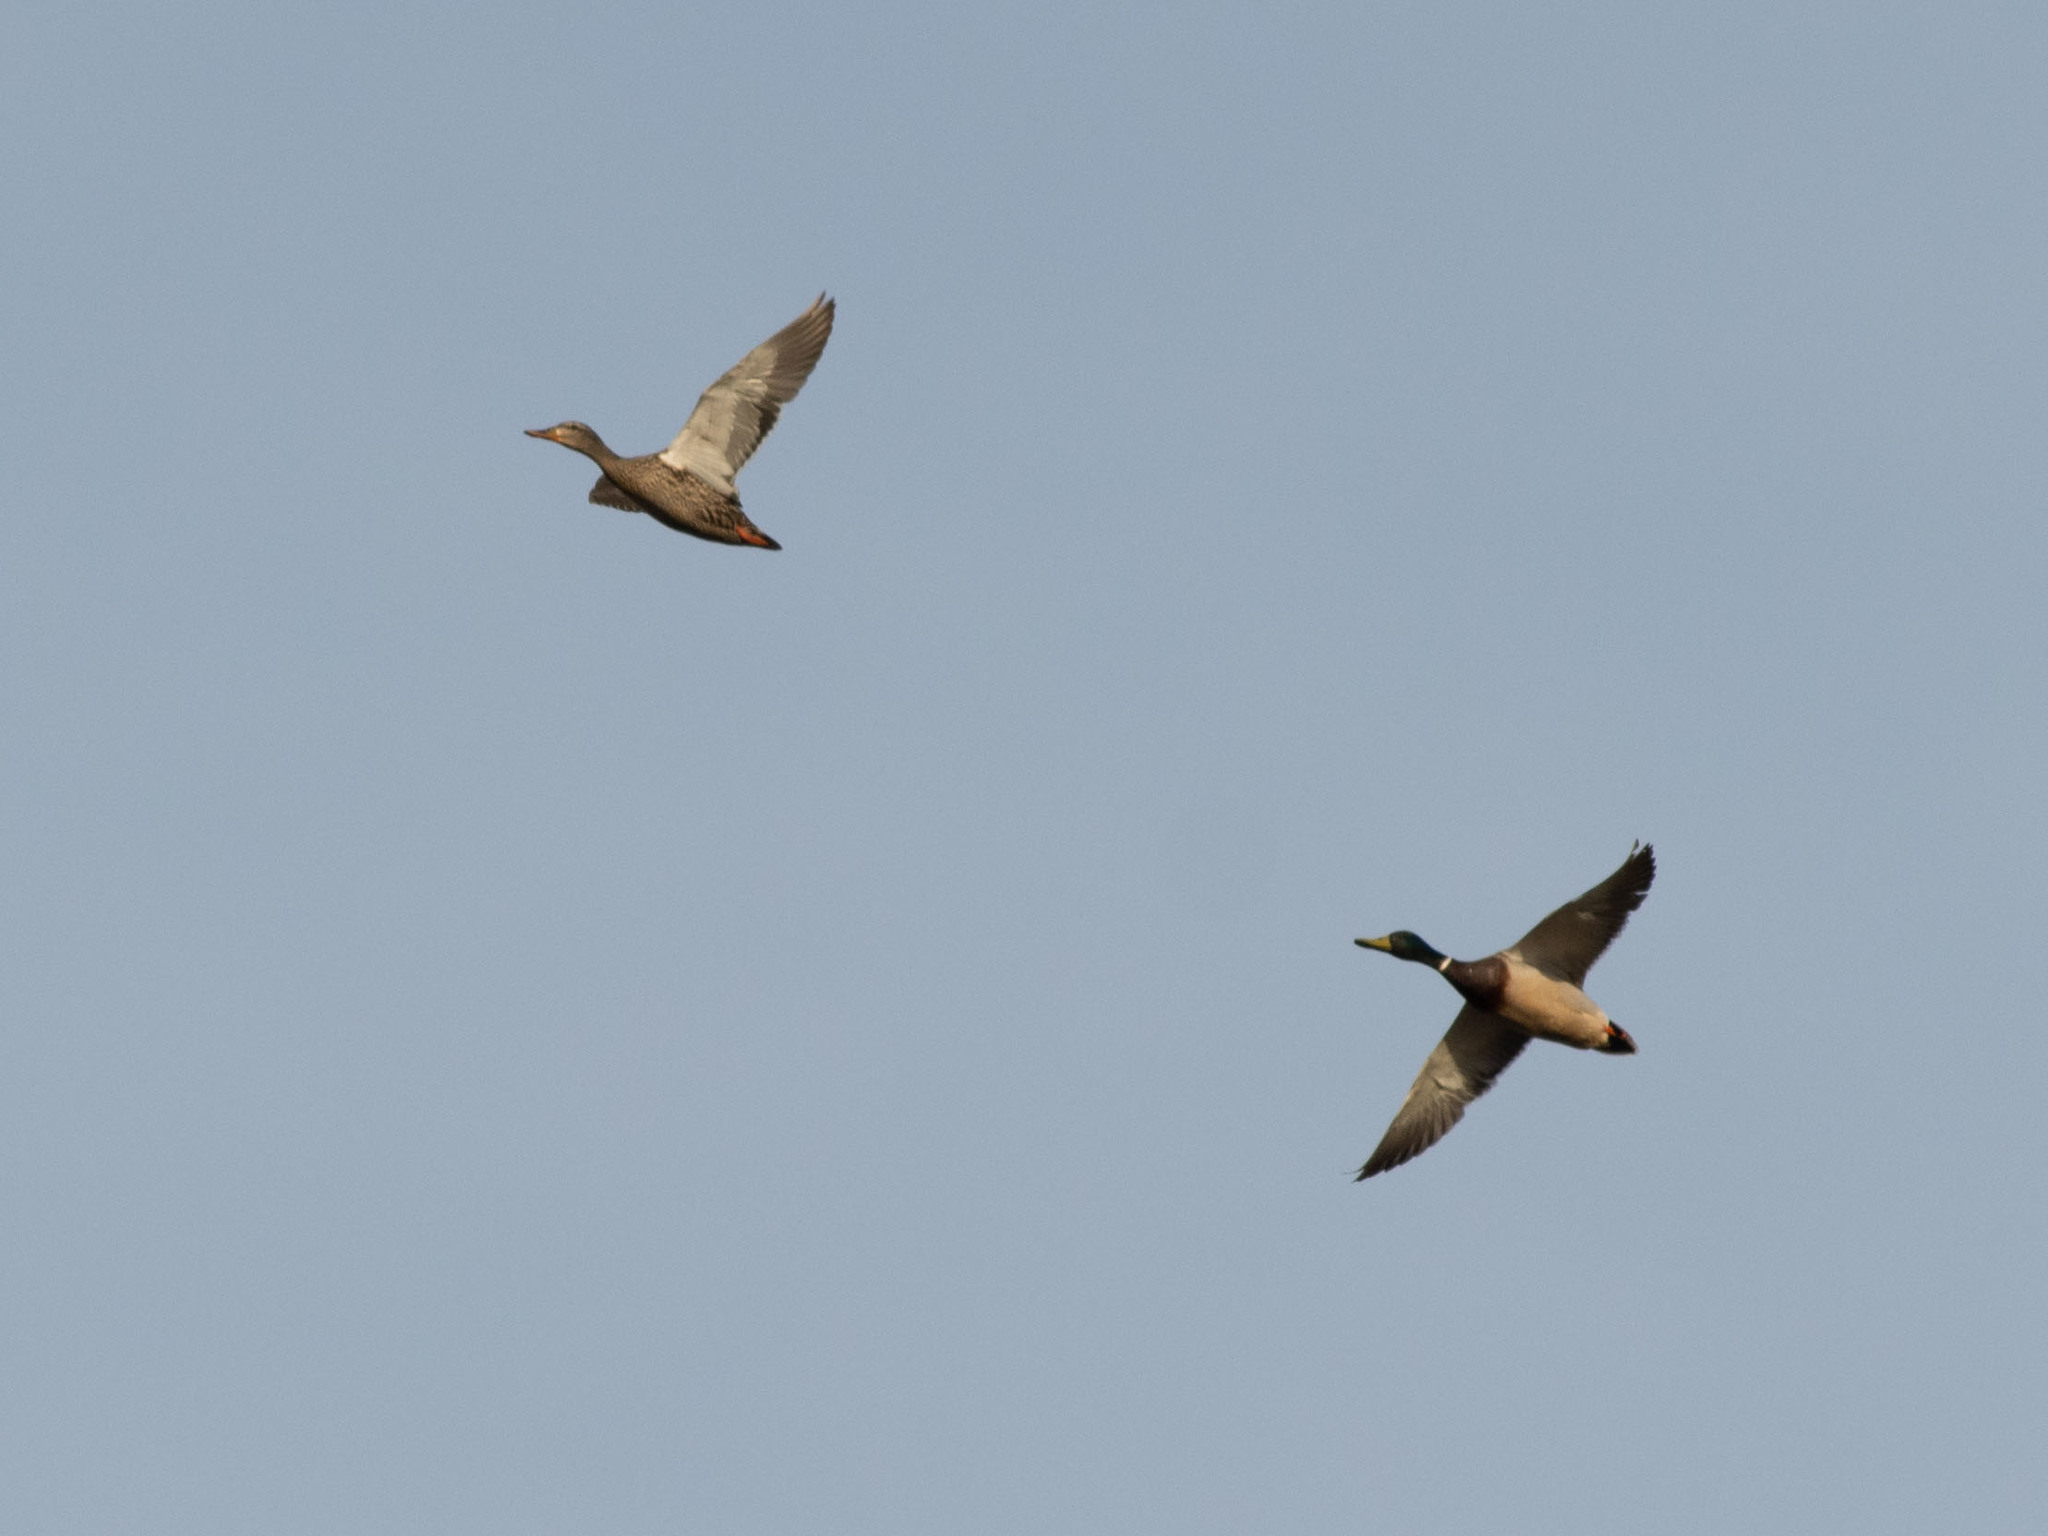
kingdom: Animalia
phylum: Chordata
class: Aves
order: Anseriformes
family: Anatidae
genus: Anas
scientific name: Anas platyrhynchos
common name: Mallard
